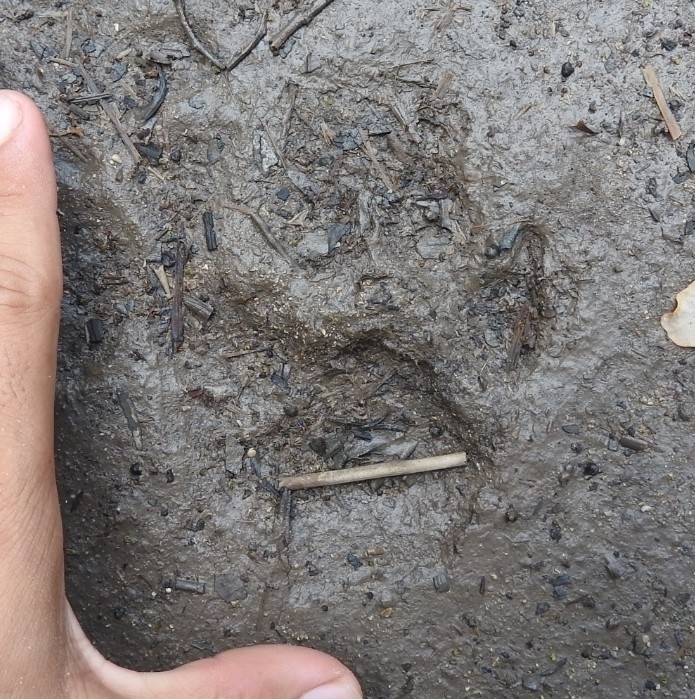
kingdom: Animalia
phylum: Chordata
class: Mammalia
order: Carnivora
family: Canidae
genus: Canis
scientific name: Canis lupus
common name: Gray wolf
